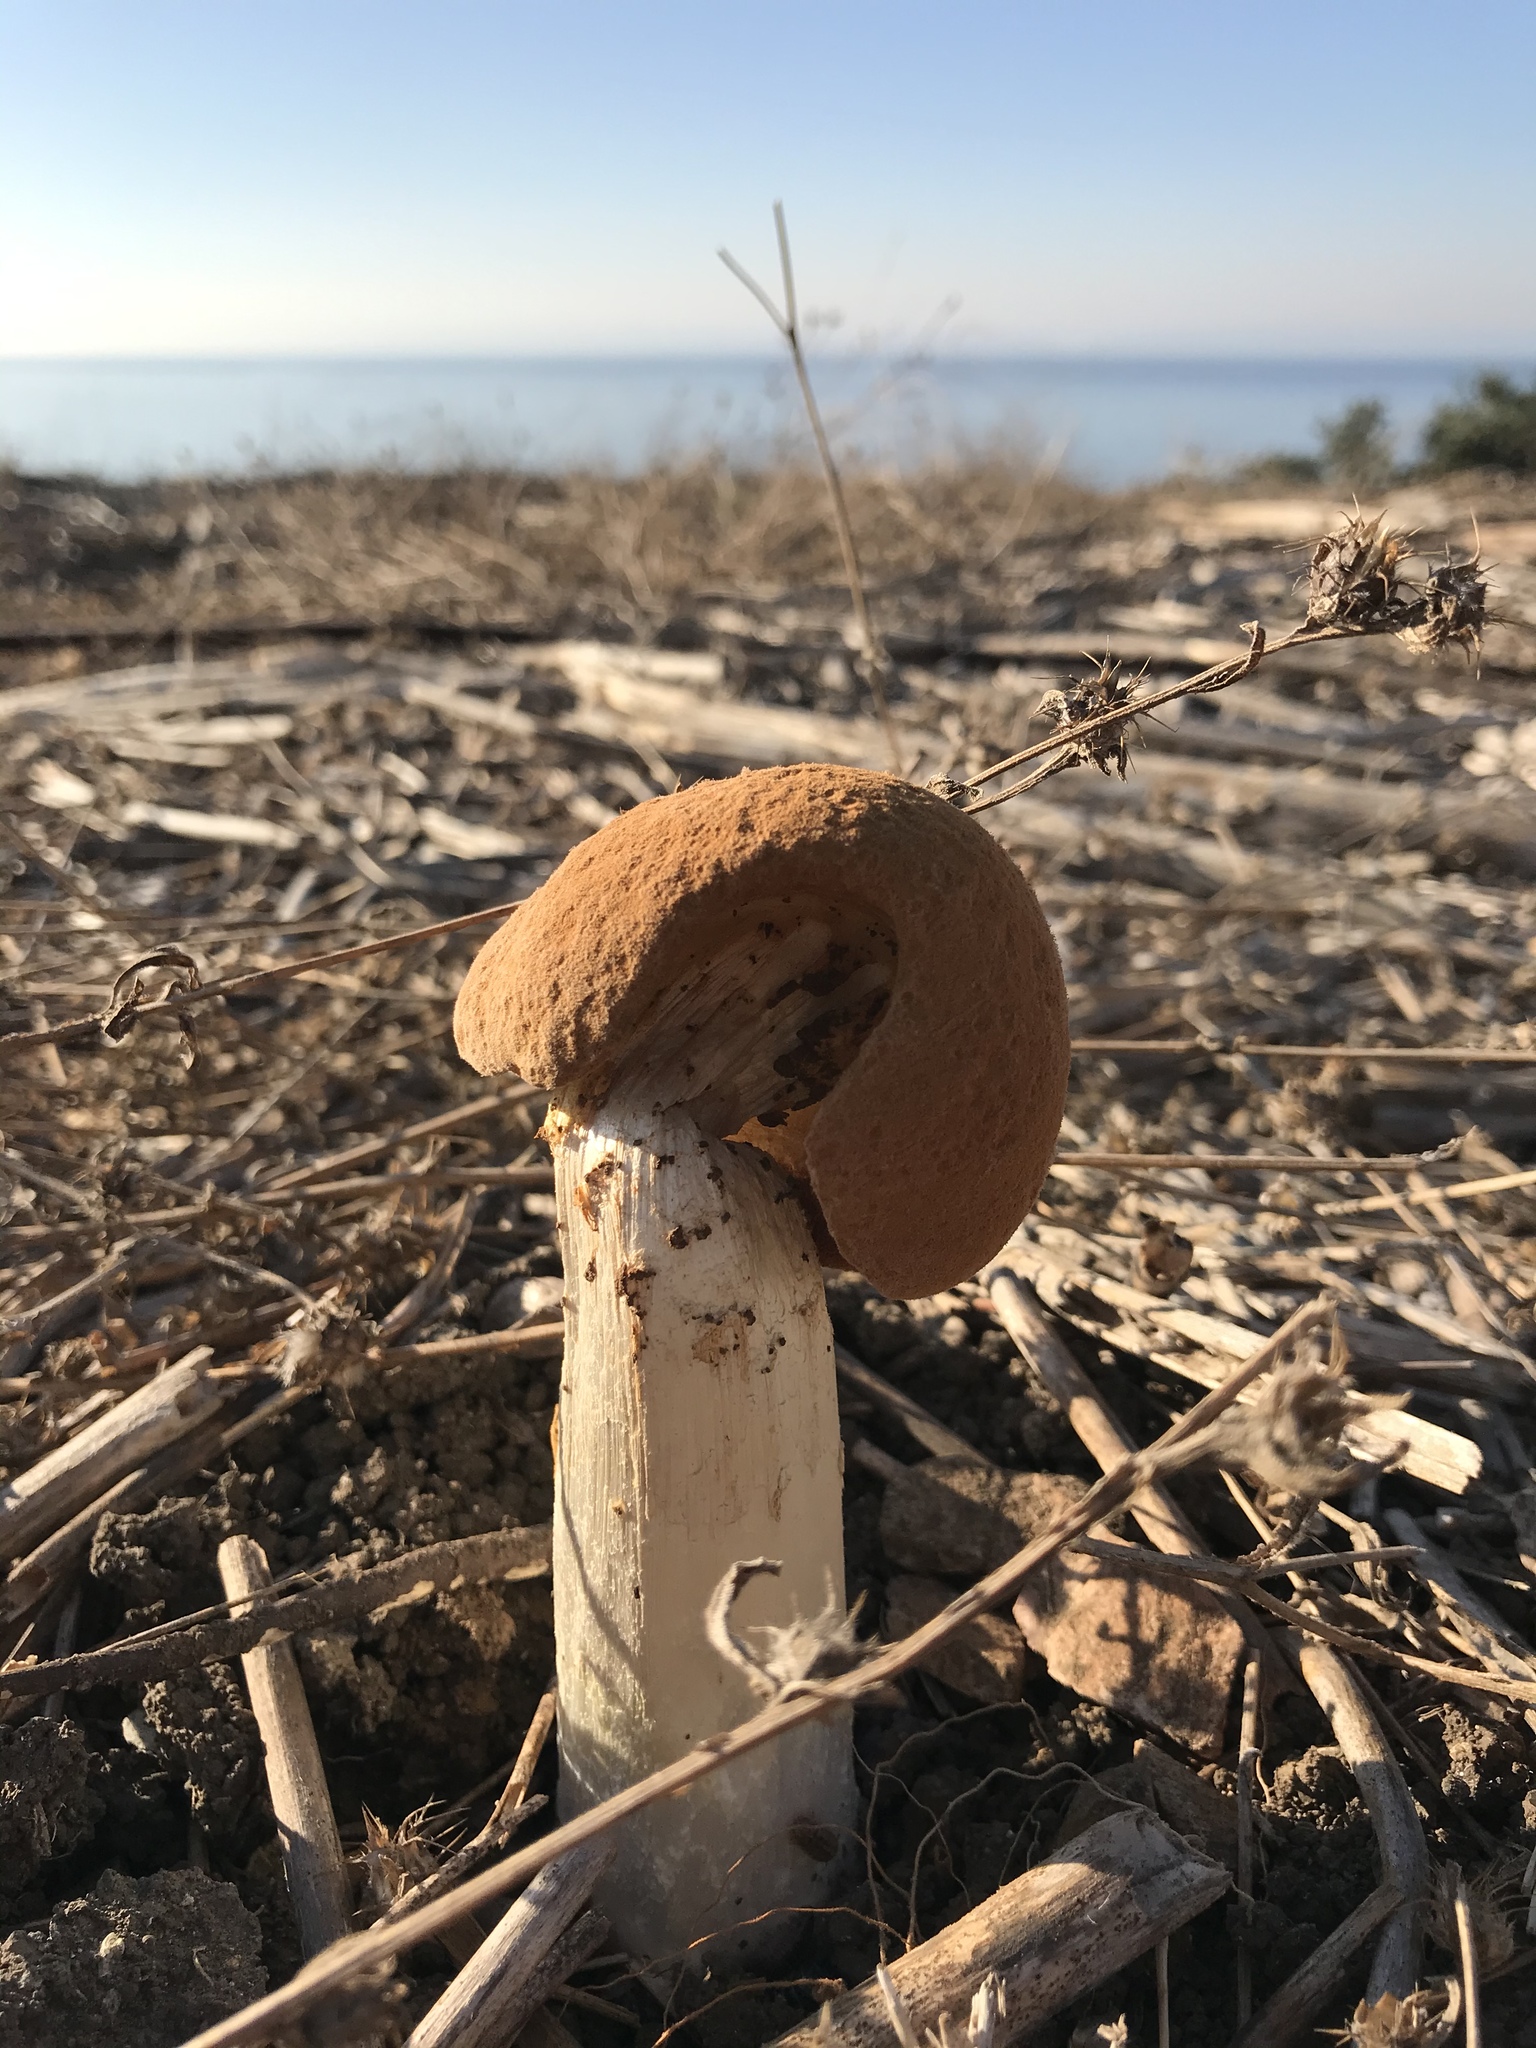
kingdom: Fungi
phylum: Basidiomycota
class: Agaricomycetes
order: Agaricales
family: Agaricaceae
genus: Battarrea
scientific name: Battarrea phalloides
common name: Sandy stiltball
